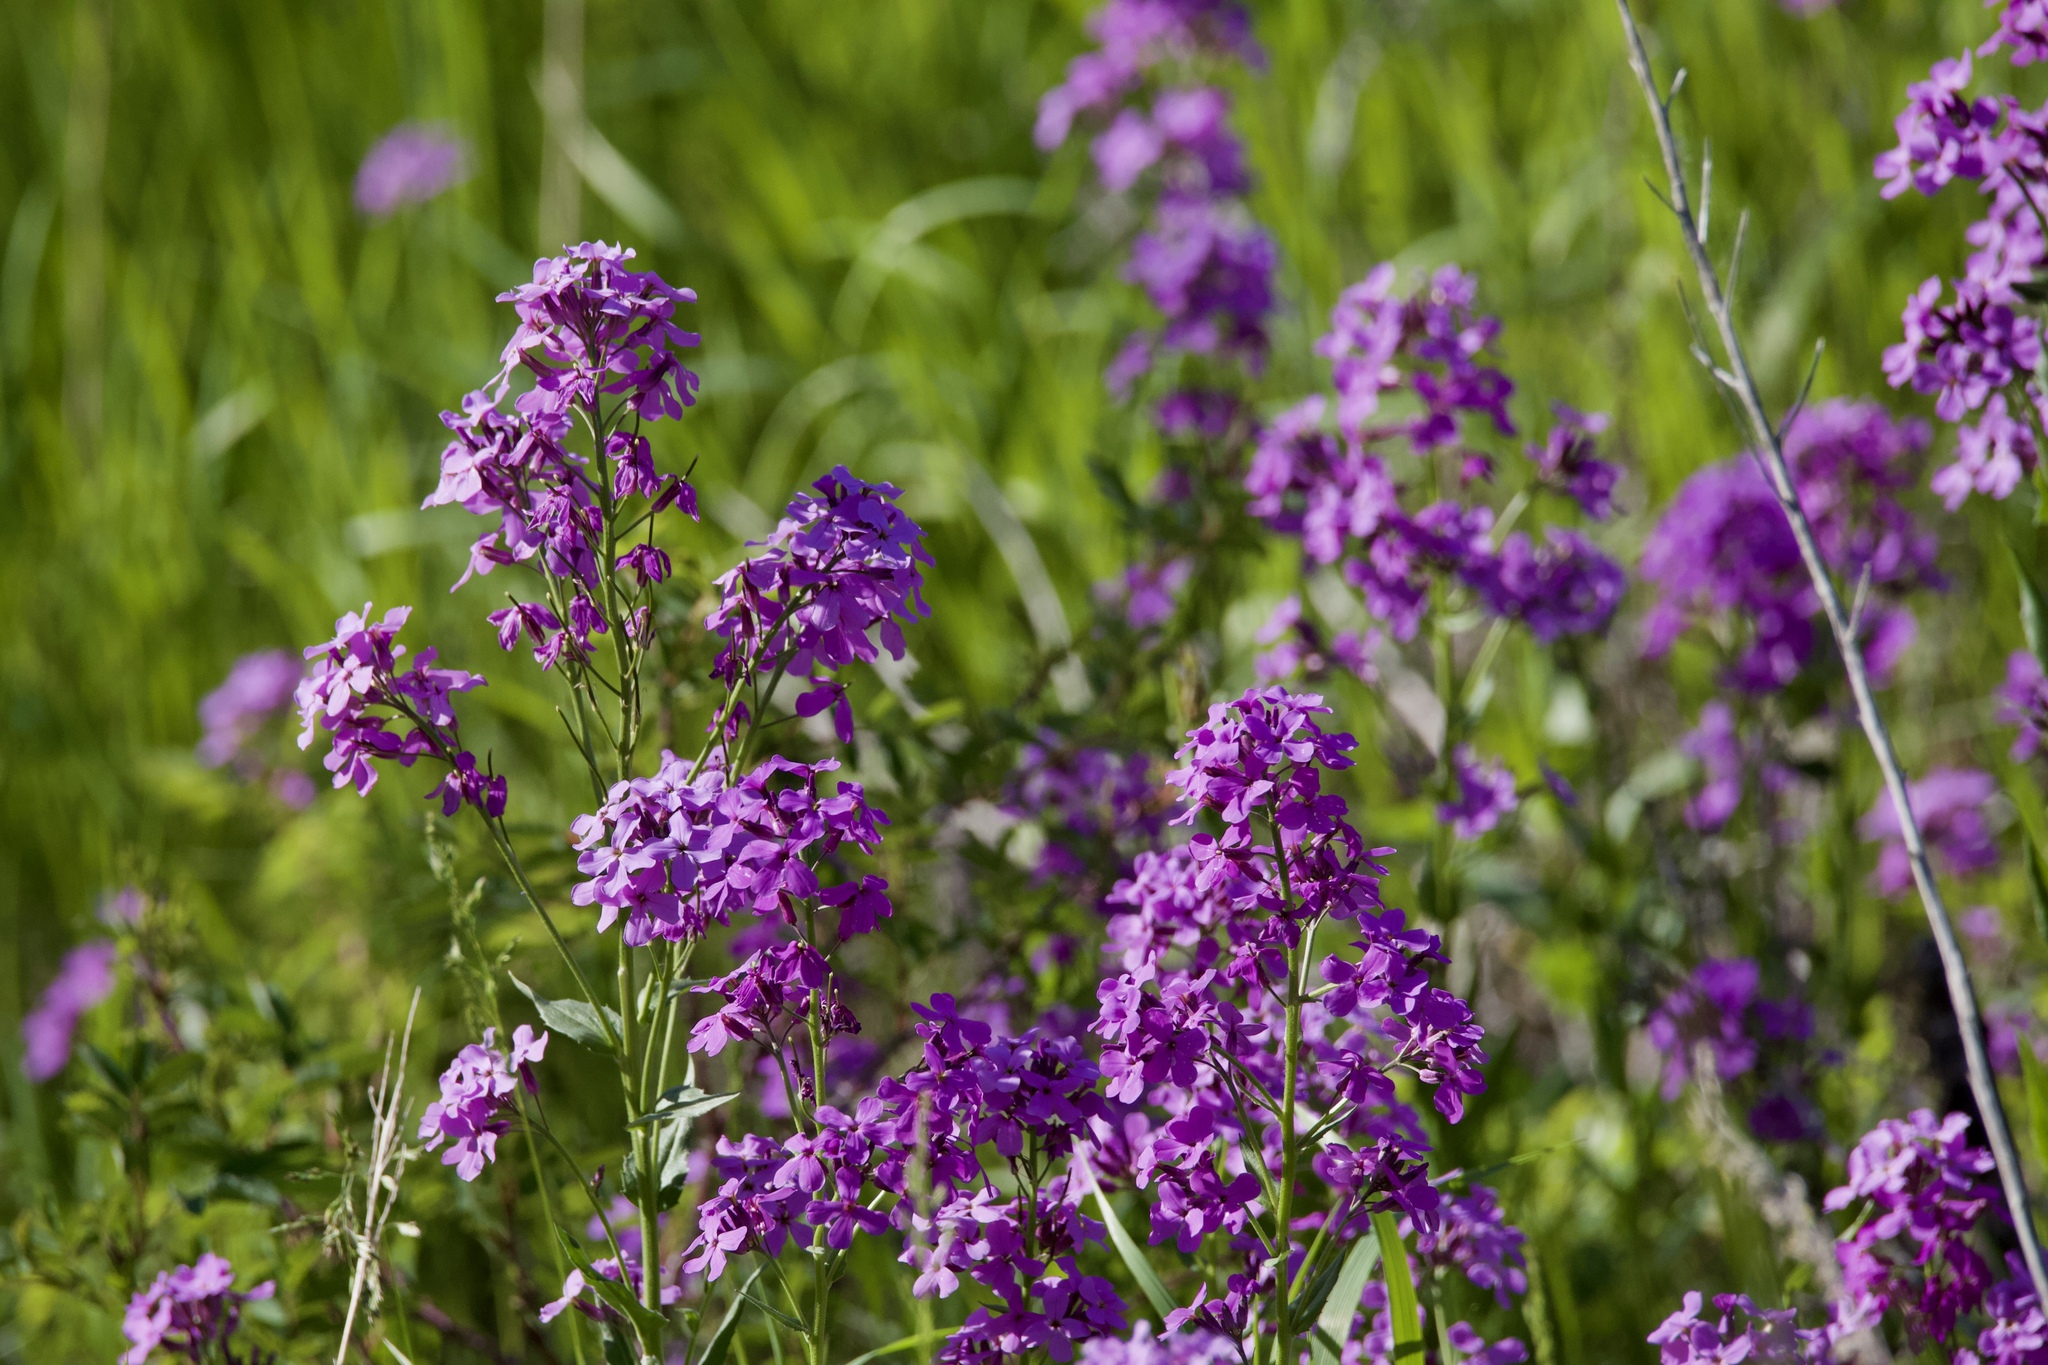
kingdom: Plantae
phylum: Tracheophyta
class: Magnoliopsida
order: Brassicales
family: Brassicaceae
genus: Hesperis
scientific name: Hesperis matronalis
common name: Dame's-violet
